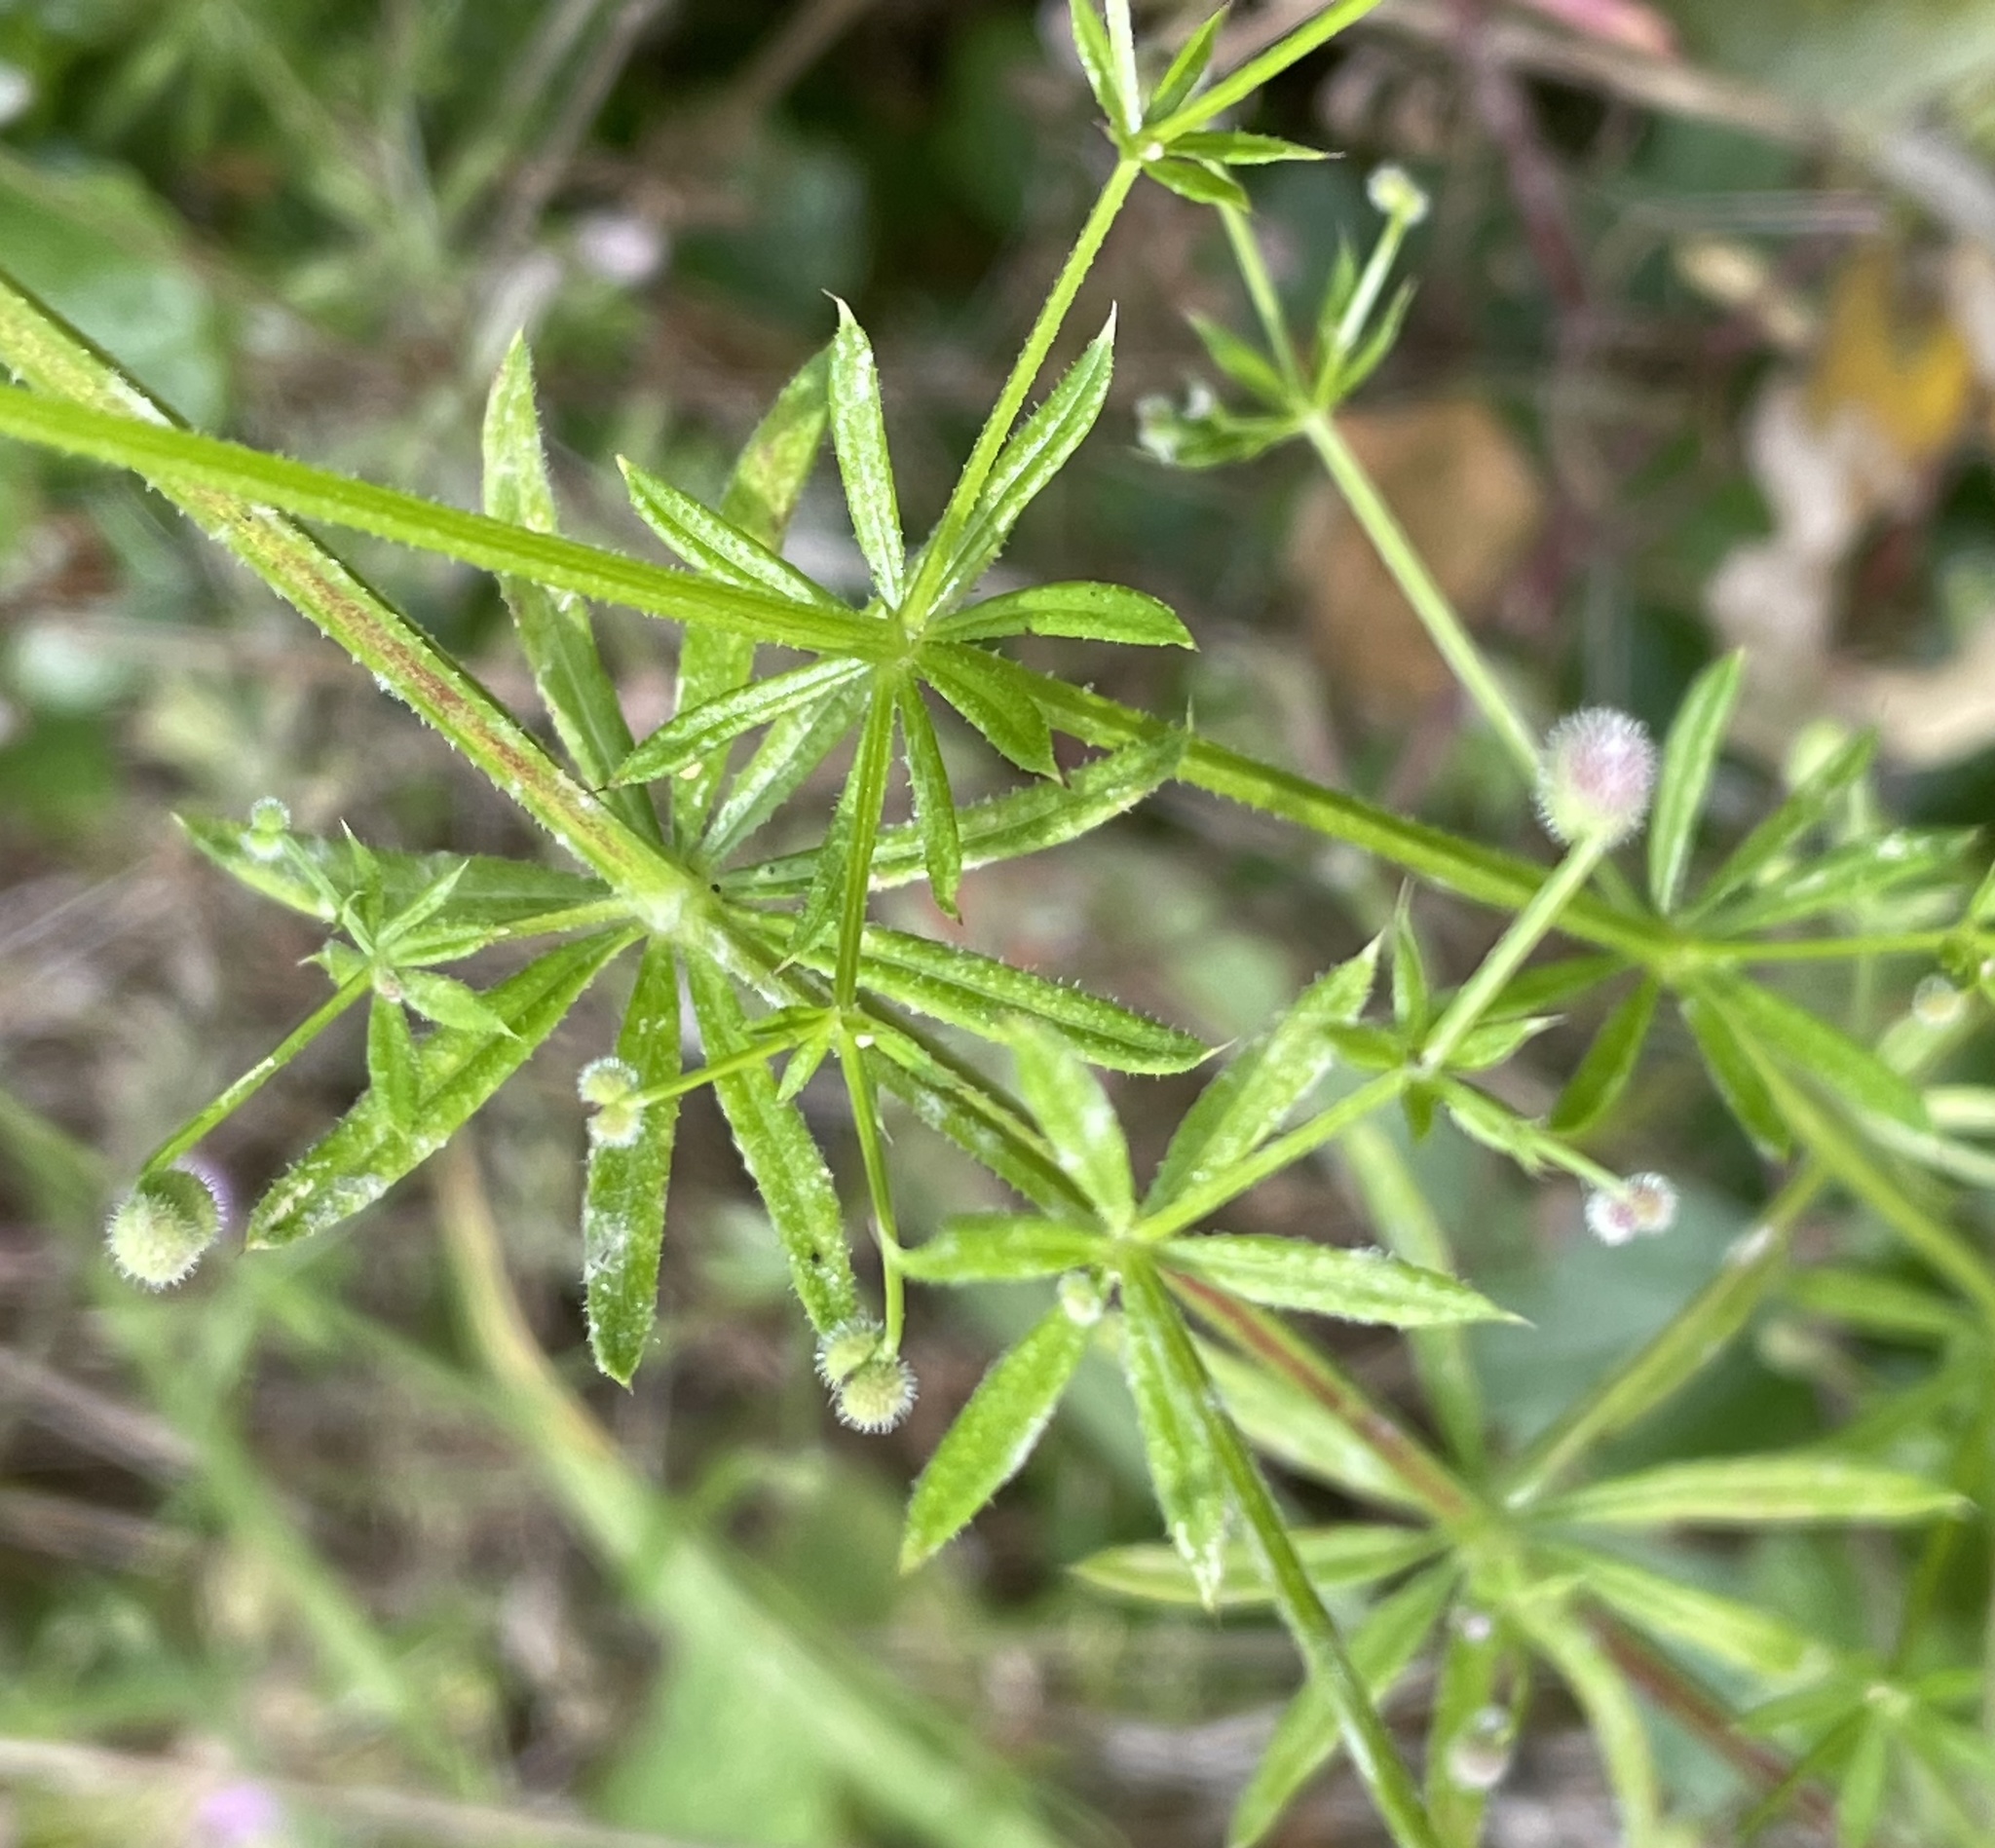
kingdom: Plantae
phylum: Tracheophyta
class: Magnoliopsida
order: Gentianales
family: Rubiaceae
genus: Galium
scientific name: Galium aparine
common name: Cleavers
